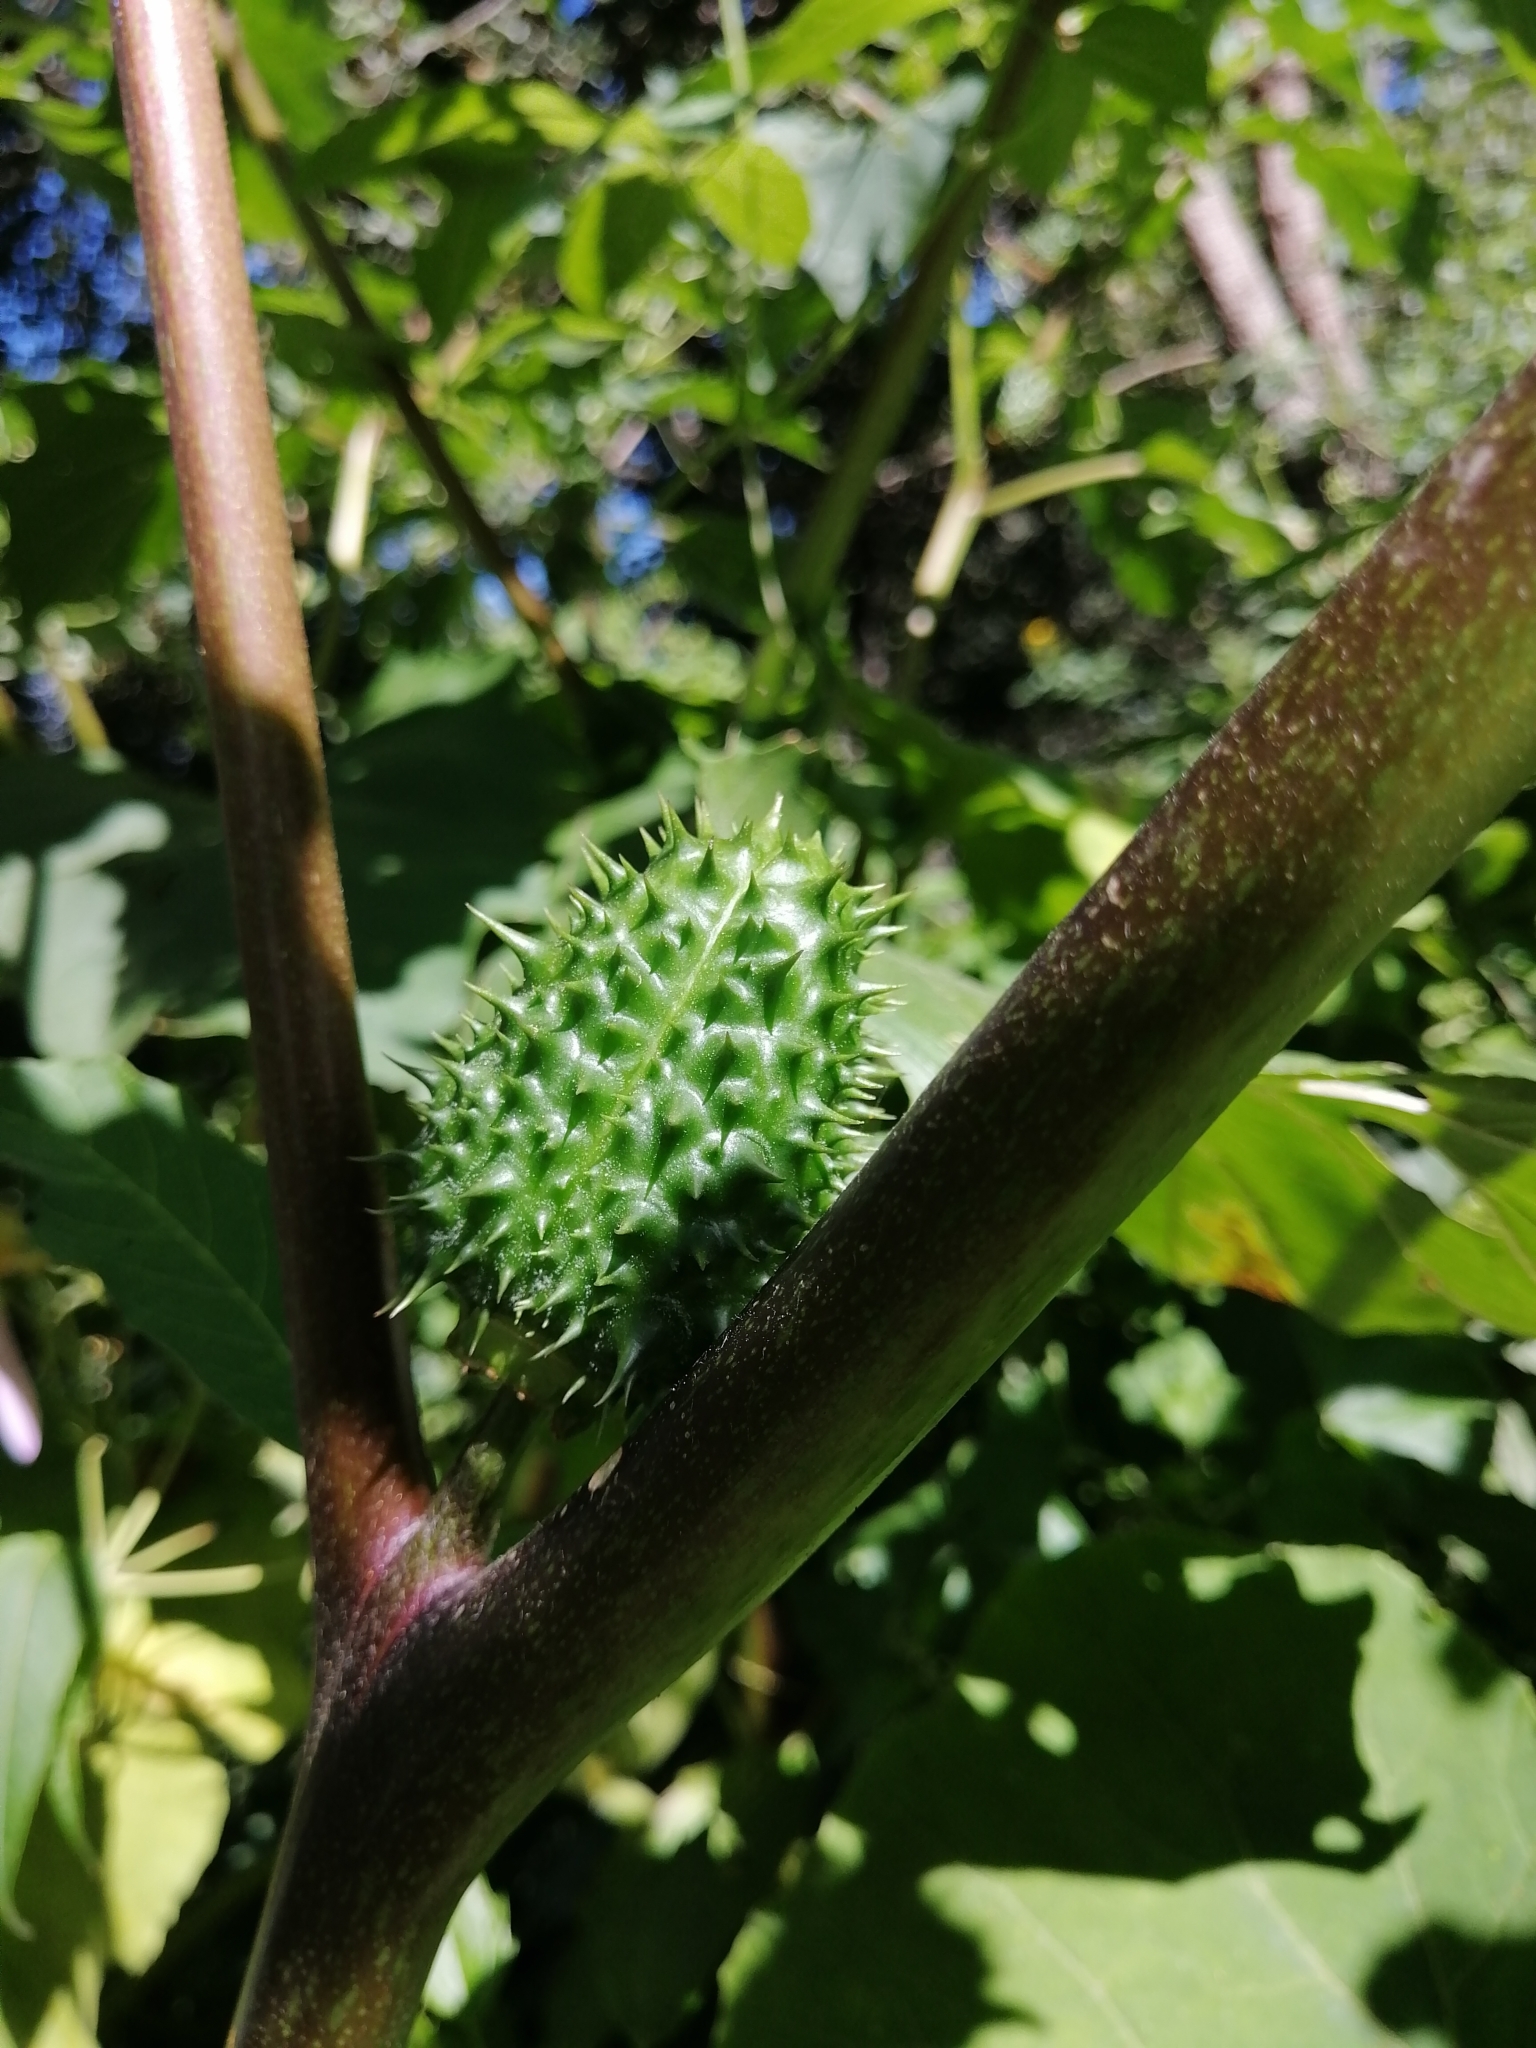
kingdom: Plantae
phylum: Tracheophyta
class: Magnoliopsida
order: Solanales
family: Solanaceae
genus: Datura
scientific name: Datura stramonium
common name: Thorn-apple
